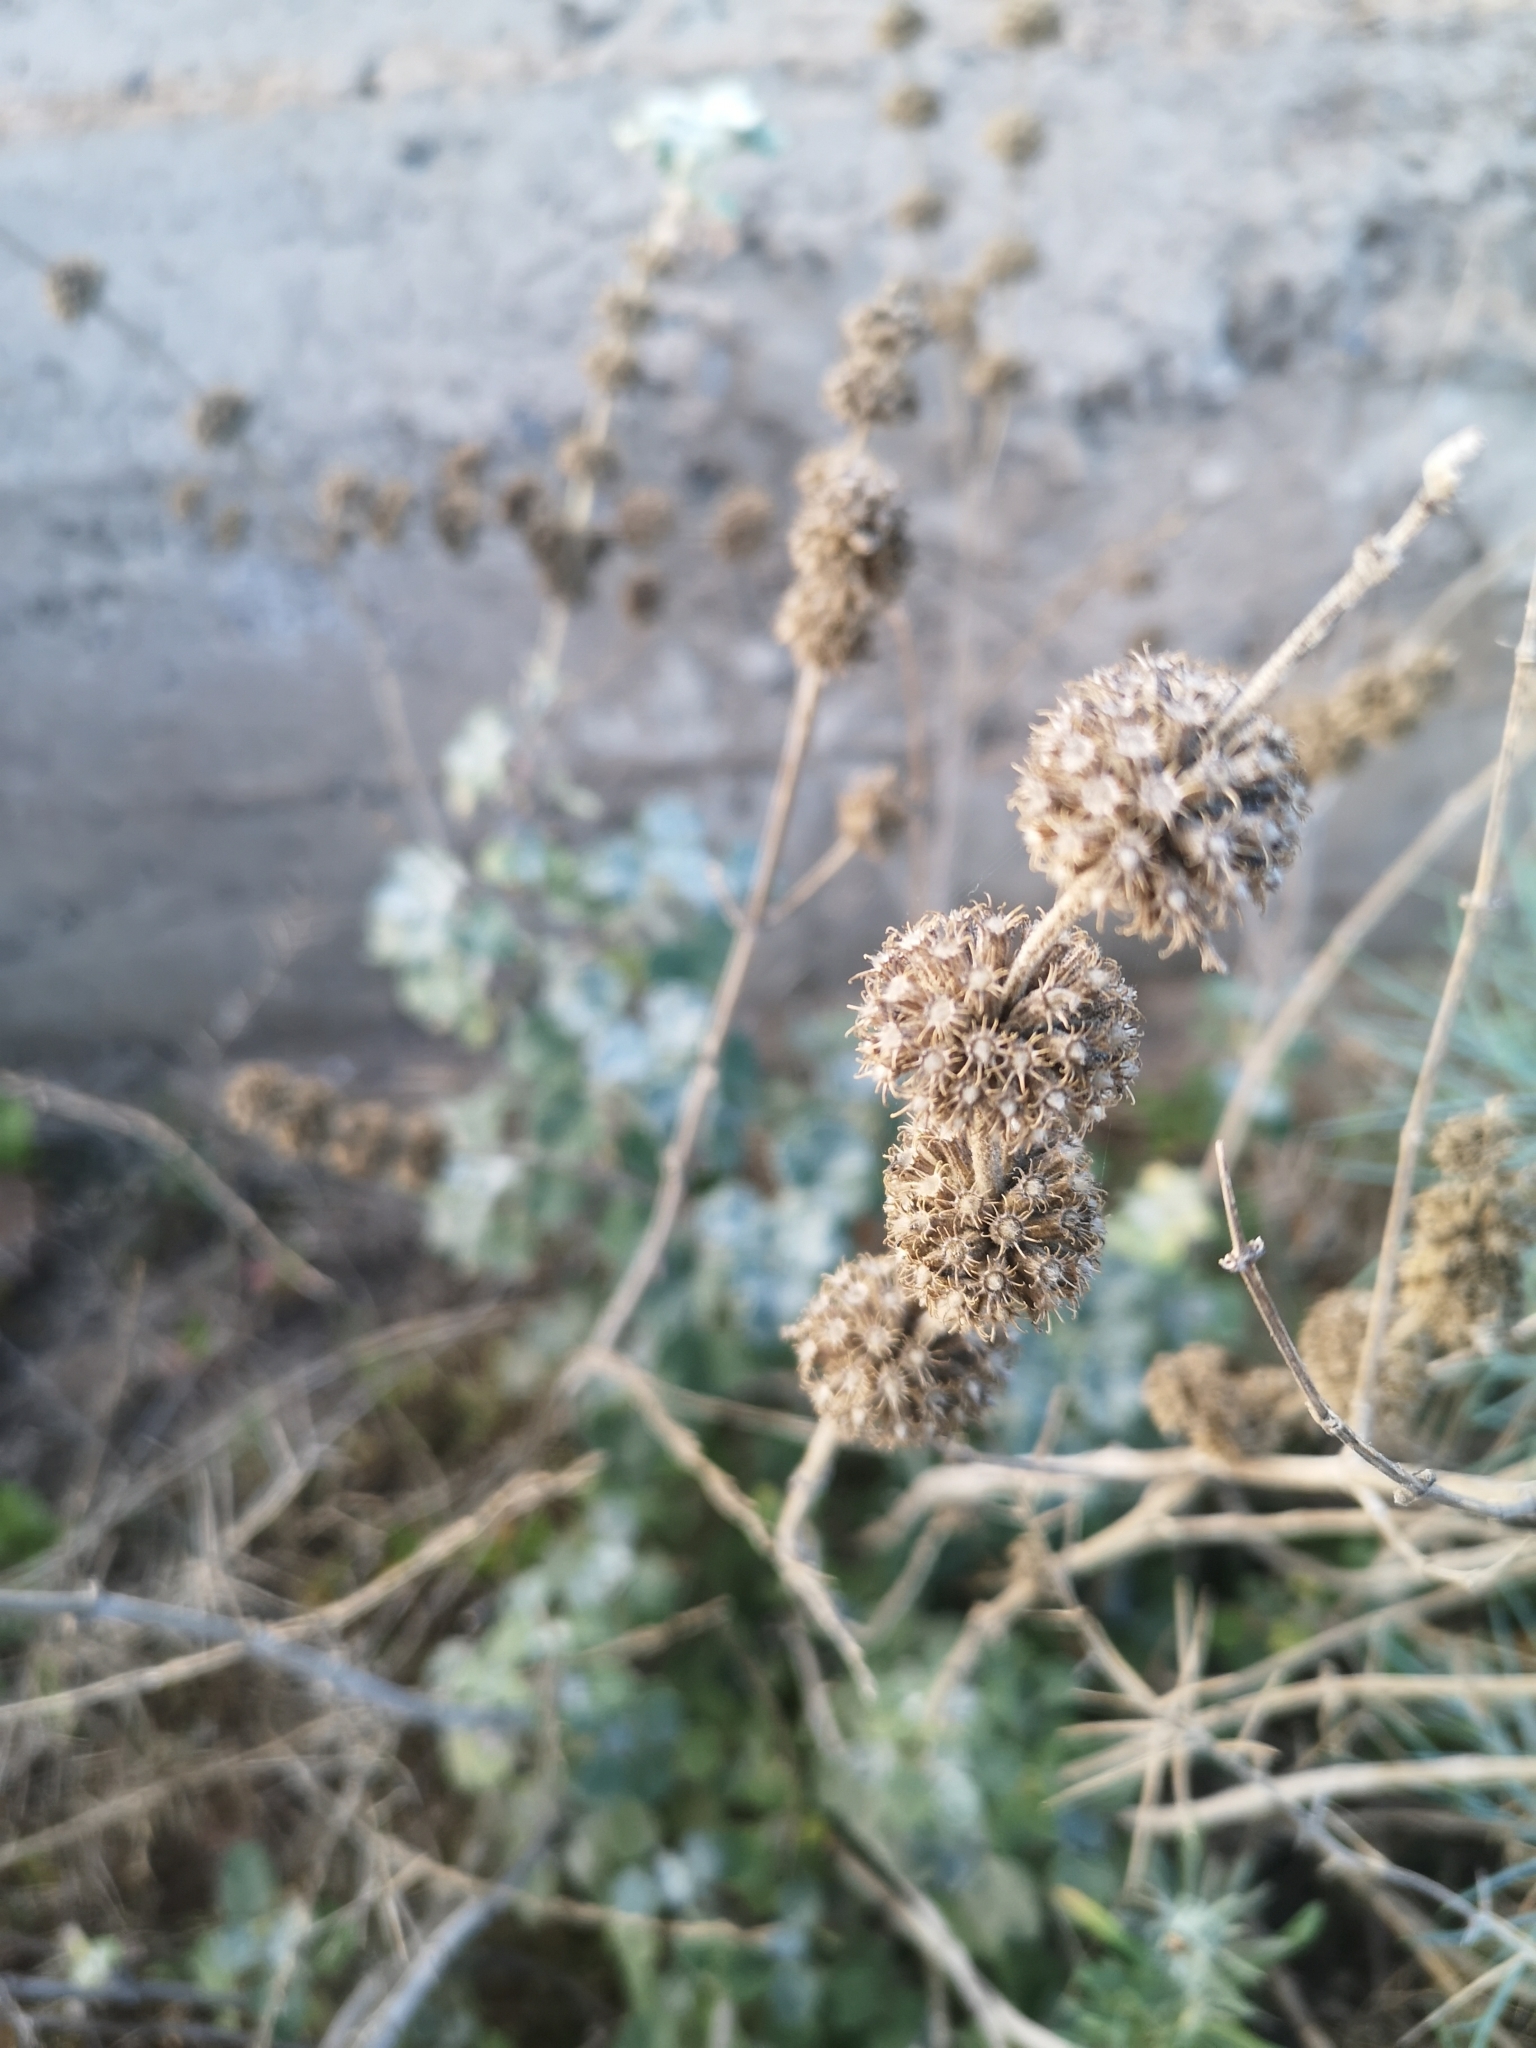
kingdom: Plantae
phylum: Tracheophyta
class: Magnoliopsida
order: Lamiales
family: Lamiaceae
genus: Marrubium
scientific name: Marrubium vulgare
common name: Horehound
